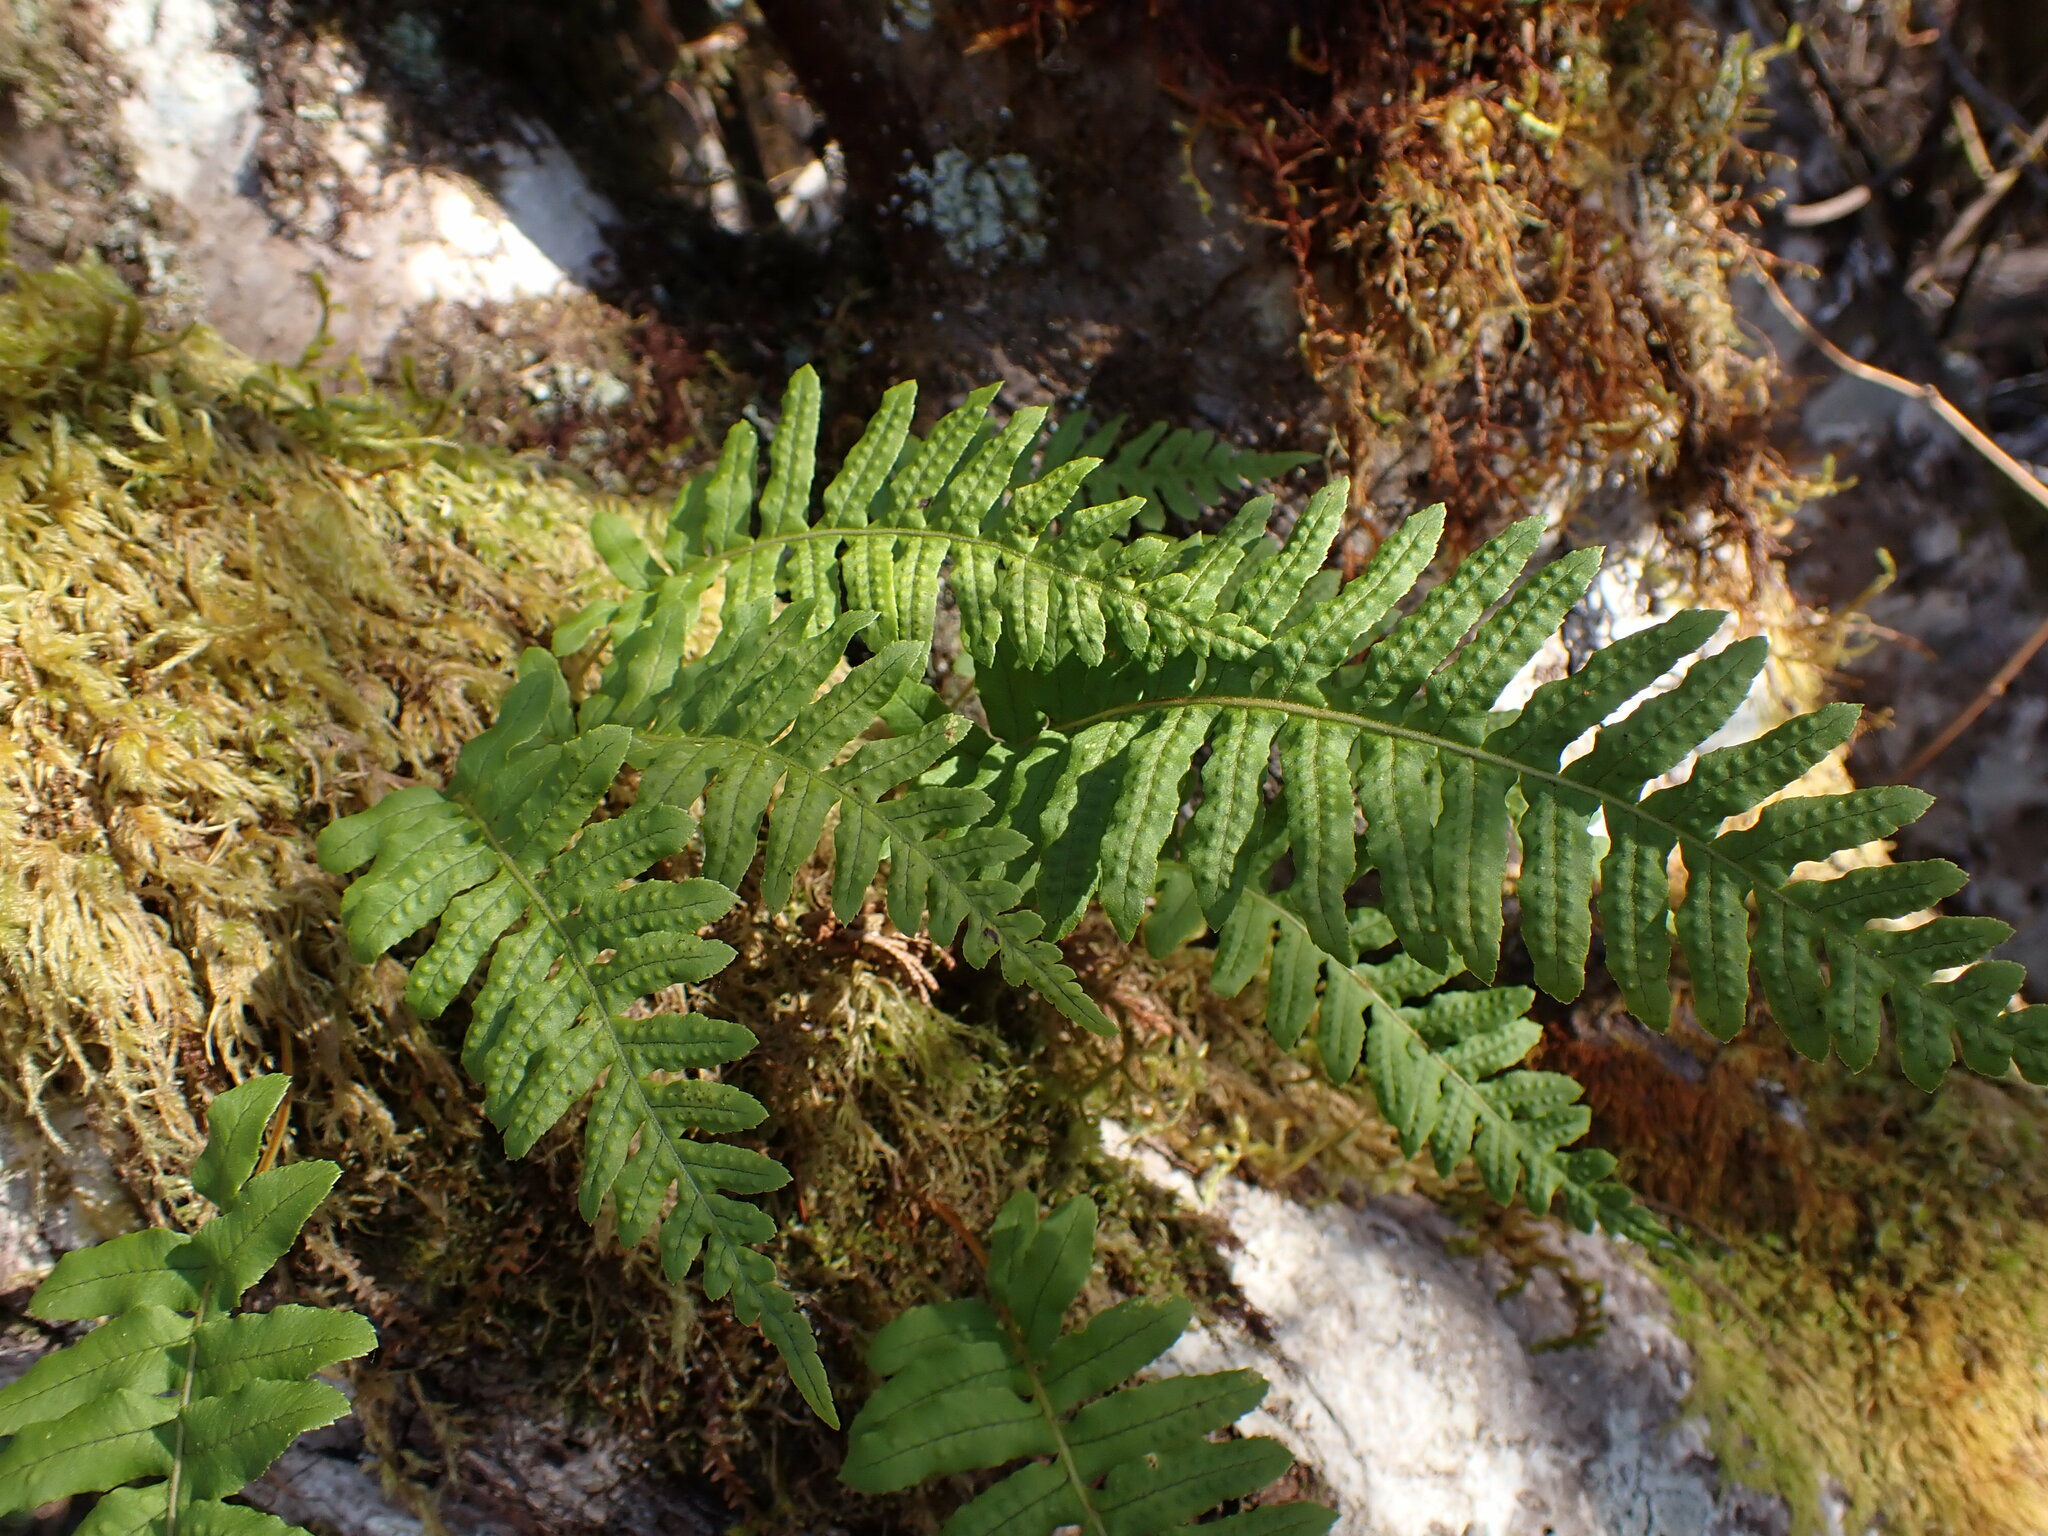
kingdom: Plantae
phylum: Tracheophyta
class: Polypodiopsida
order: Polypodiales
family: Polypodiaceae
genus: Polypodium
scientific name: Polypodium glycyrrhiza
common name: Licorice fern
